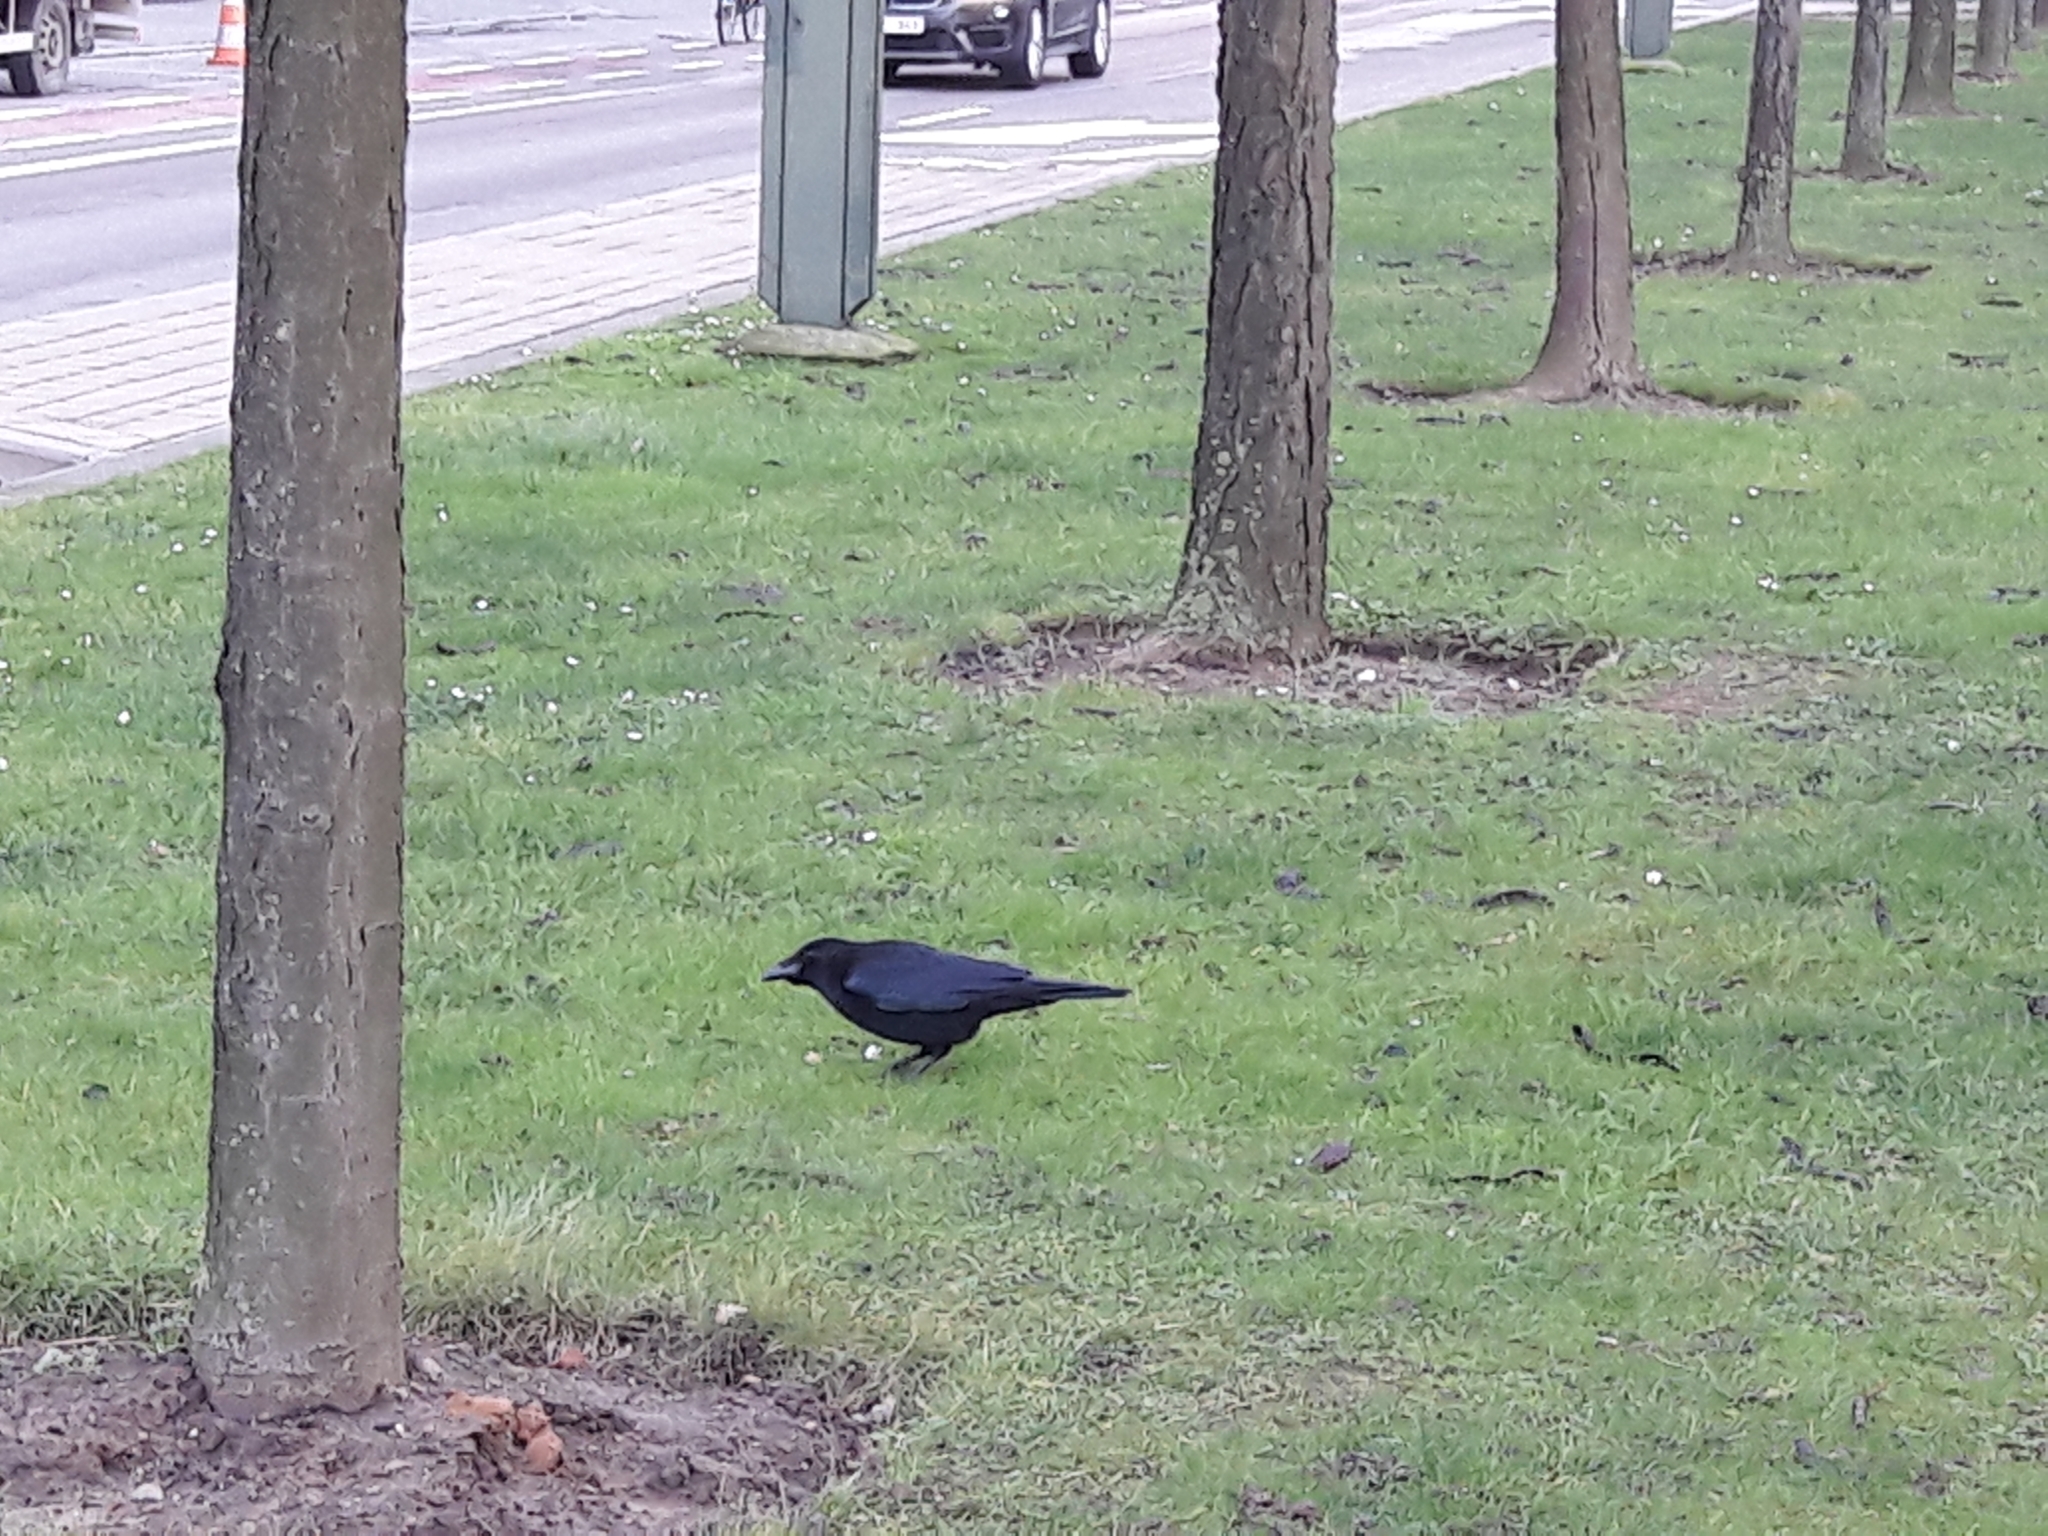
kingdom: Animalia
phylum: Chordata
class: Aves
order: Passeriformes
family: Corvidae
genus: Corvus
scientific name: Corvus corone
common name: Carrion crow
